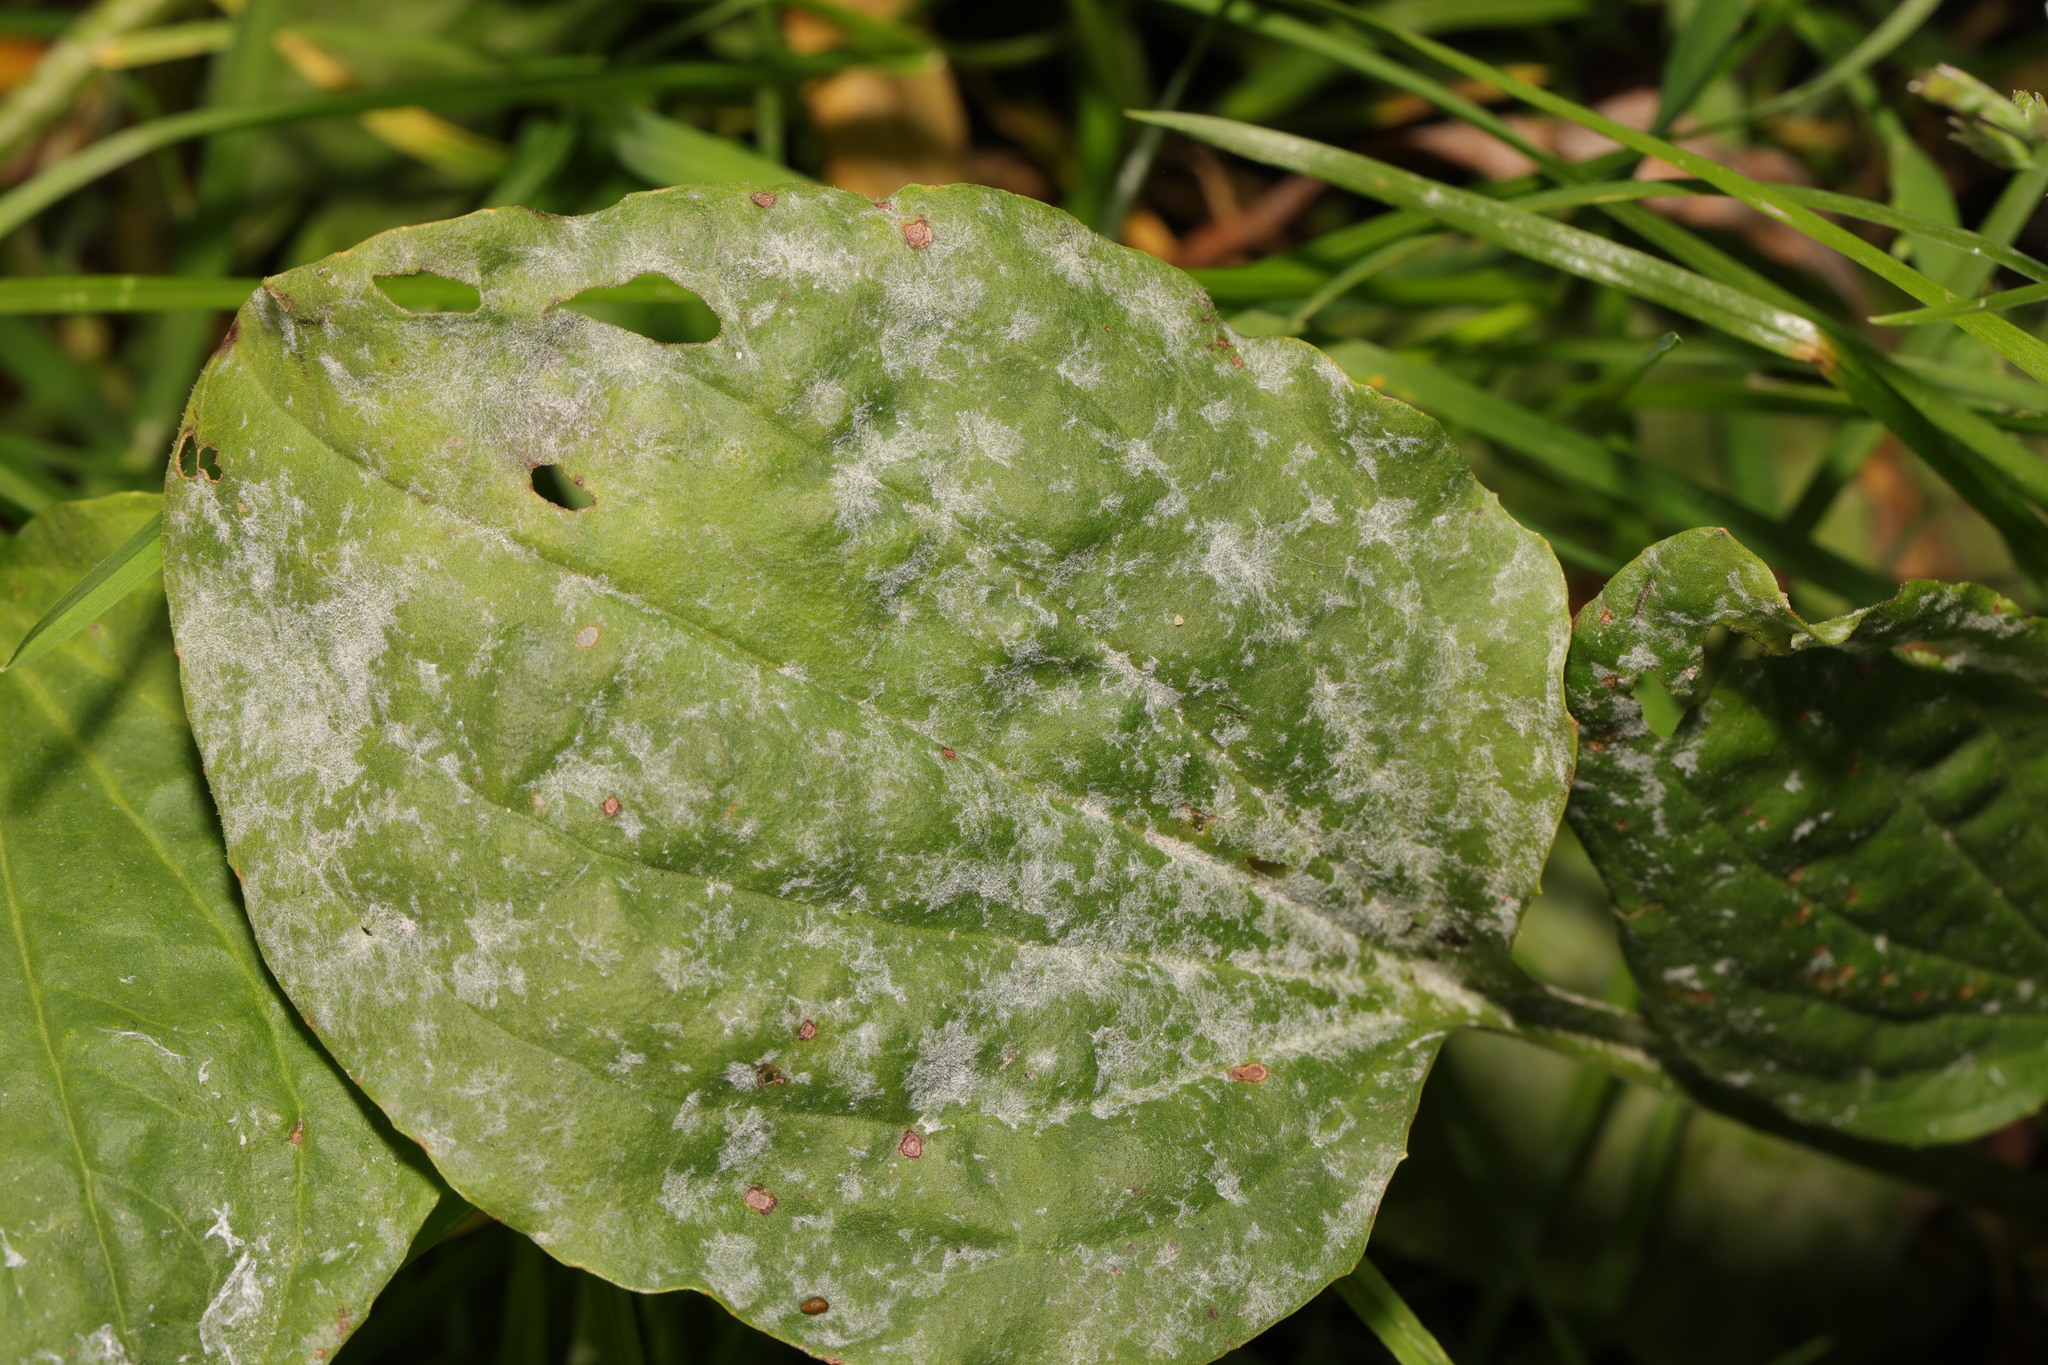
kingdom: Fungi
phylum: Ascomycota
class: Leotiomycetes
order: Helotiales
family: Erysiphaceae
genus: Golovinomyces
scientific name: Golovinomyces sordidus
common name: Plantain mildew
